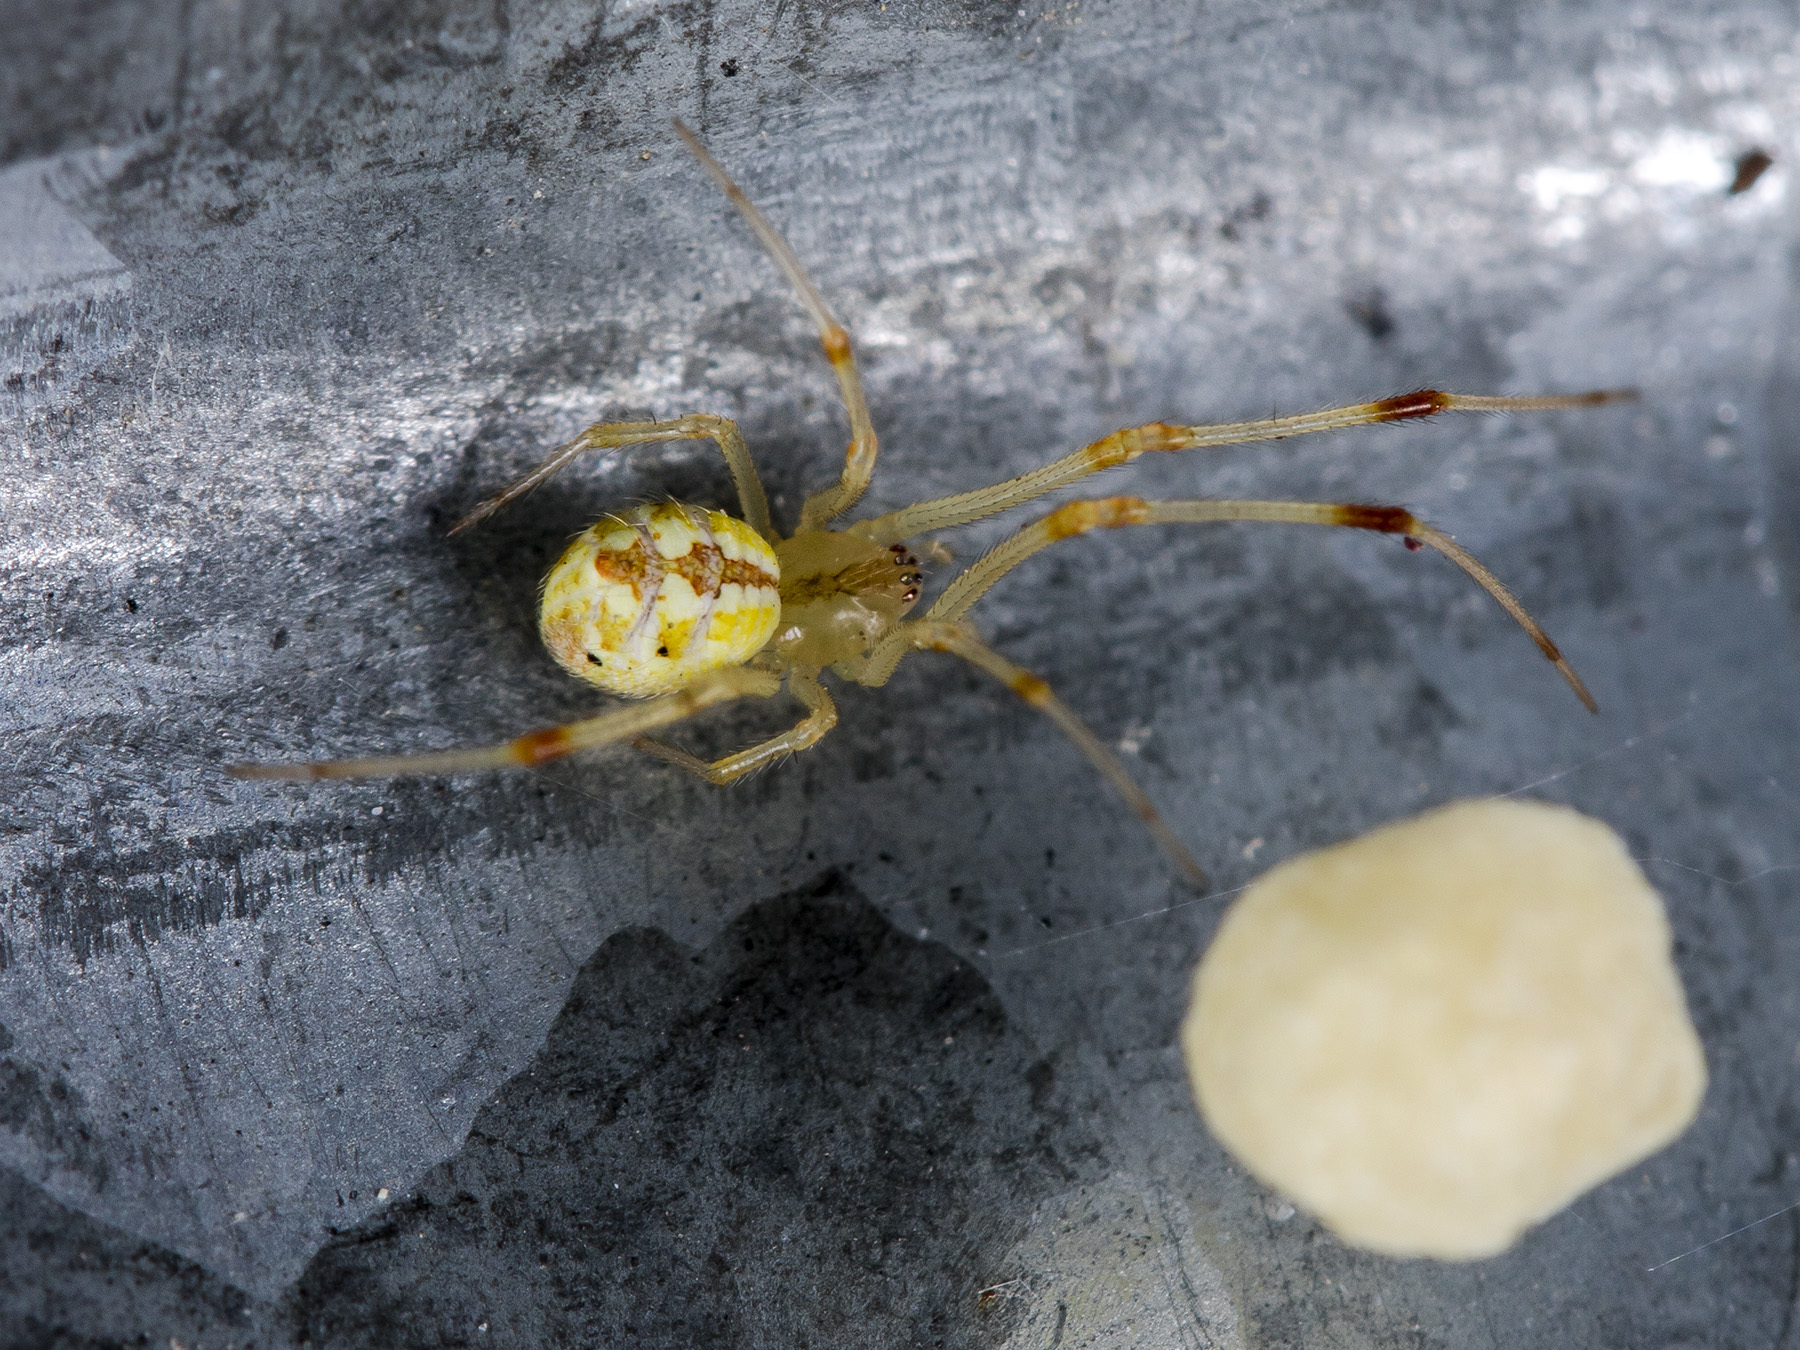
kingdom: Animalia
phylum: Arthropoda
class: Arachnida
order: Araneae
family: Theridiidae
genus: Heterotheridion
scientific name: Heterotheridion nigrovariegatum
